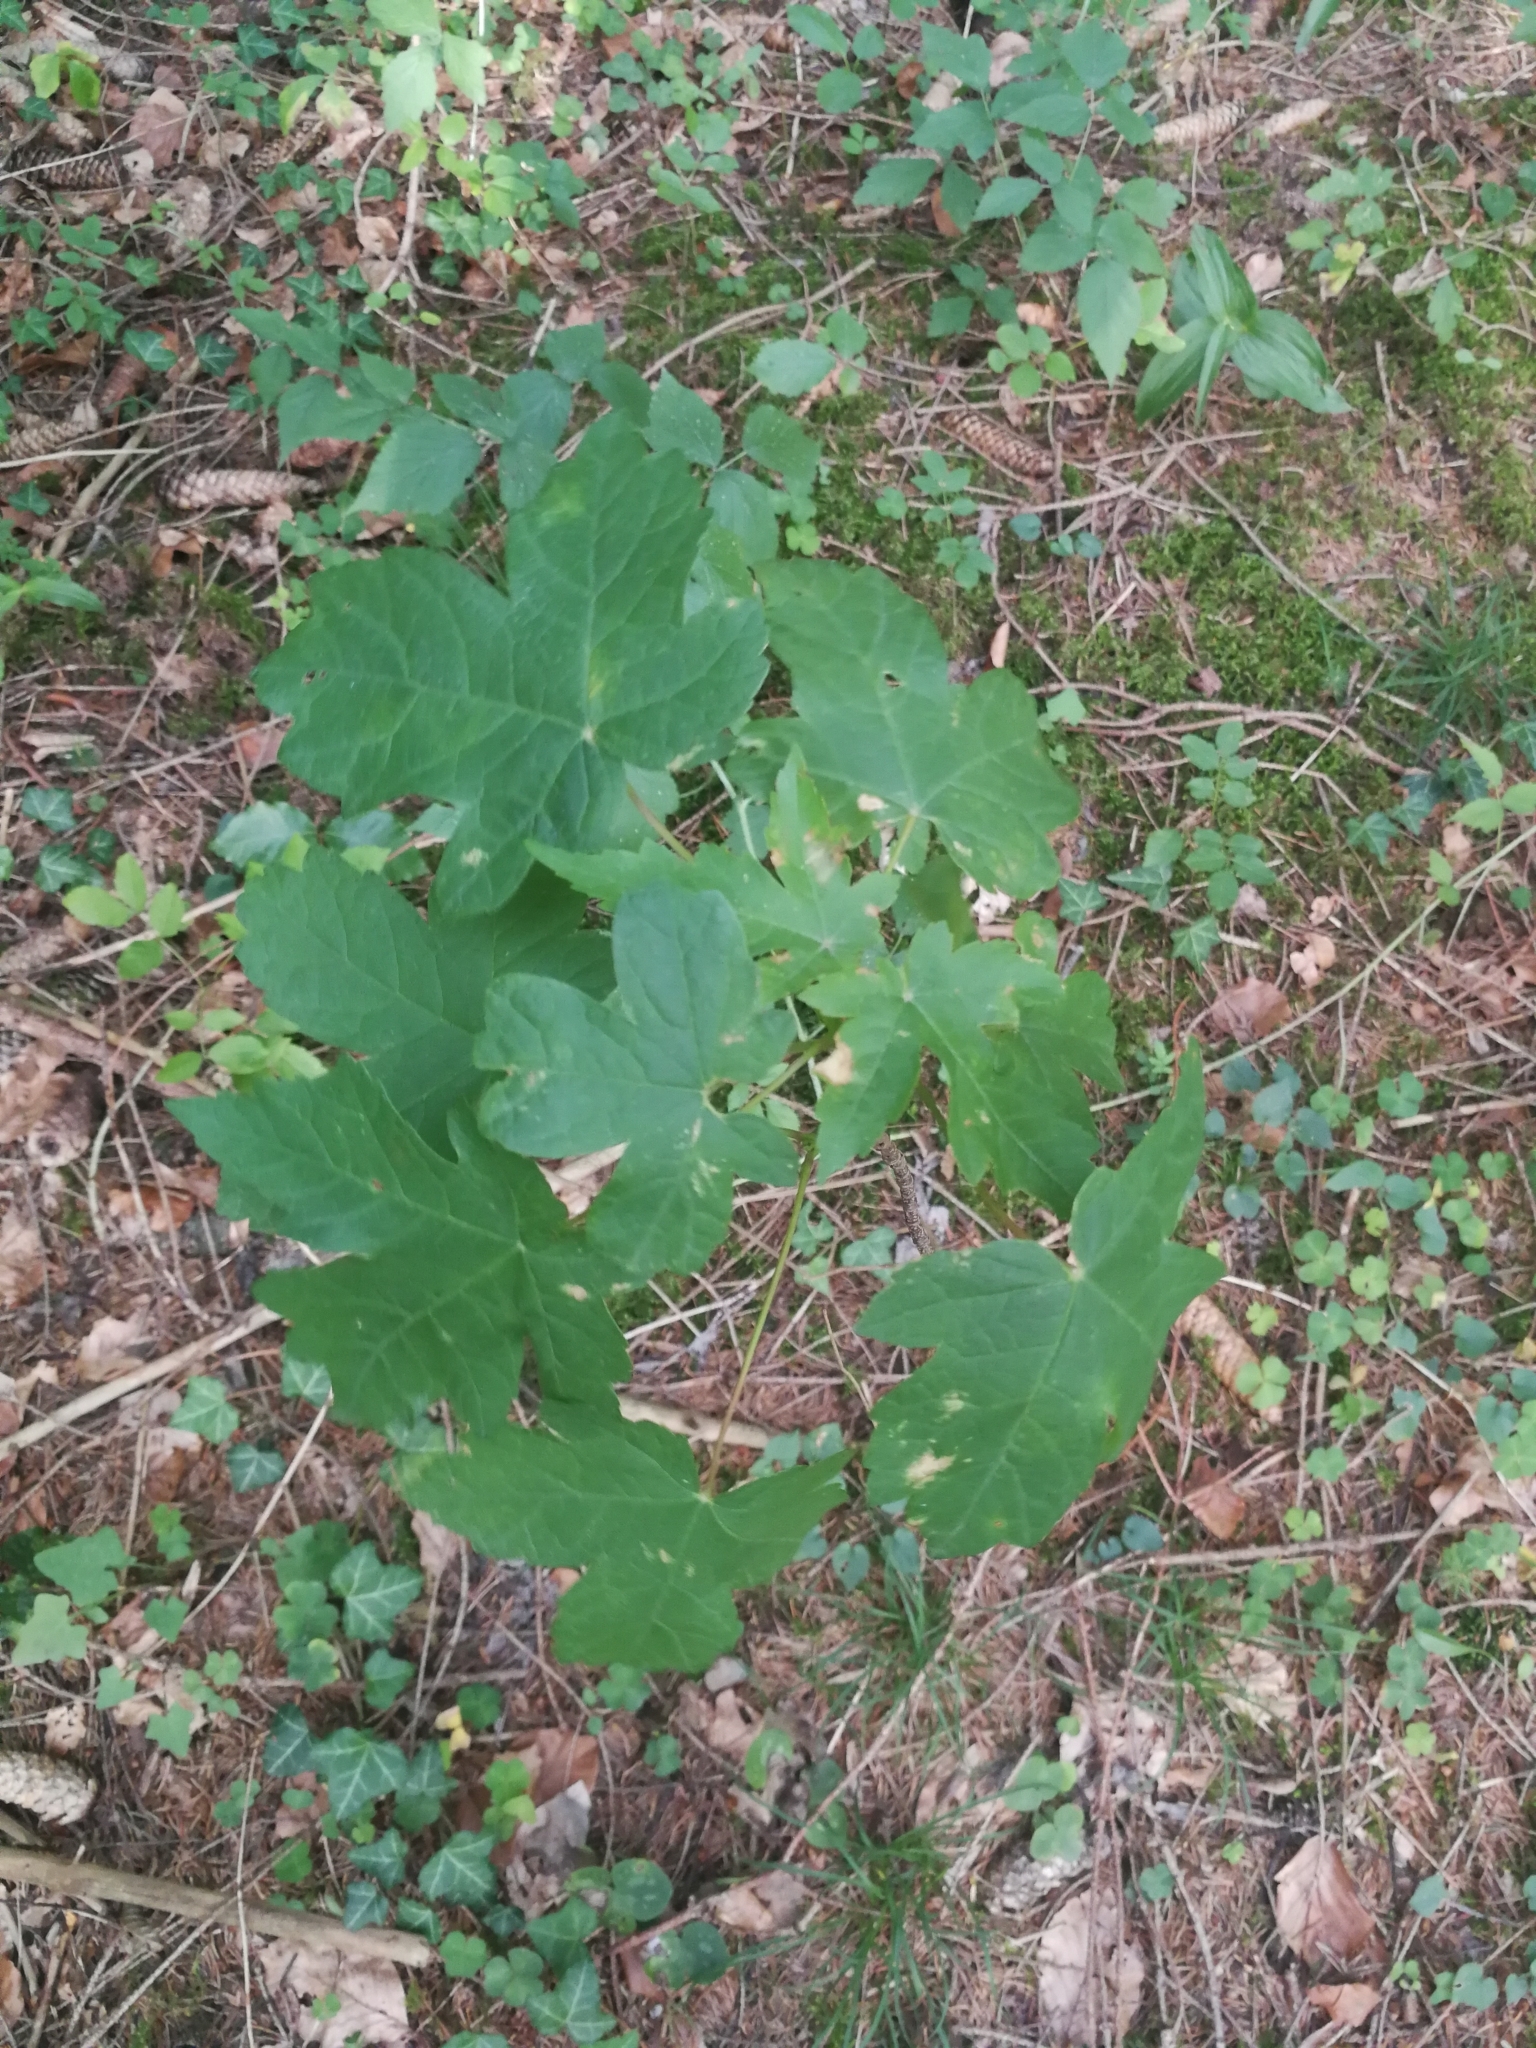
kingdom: Plantae
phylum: Tracheophyta
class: Magnoliopsida
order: Sapindales
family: Sapindaceae
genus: Acer
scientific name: Acer pseudoplatanus
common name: Sycamore
